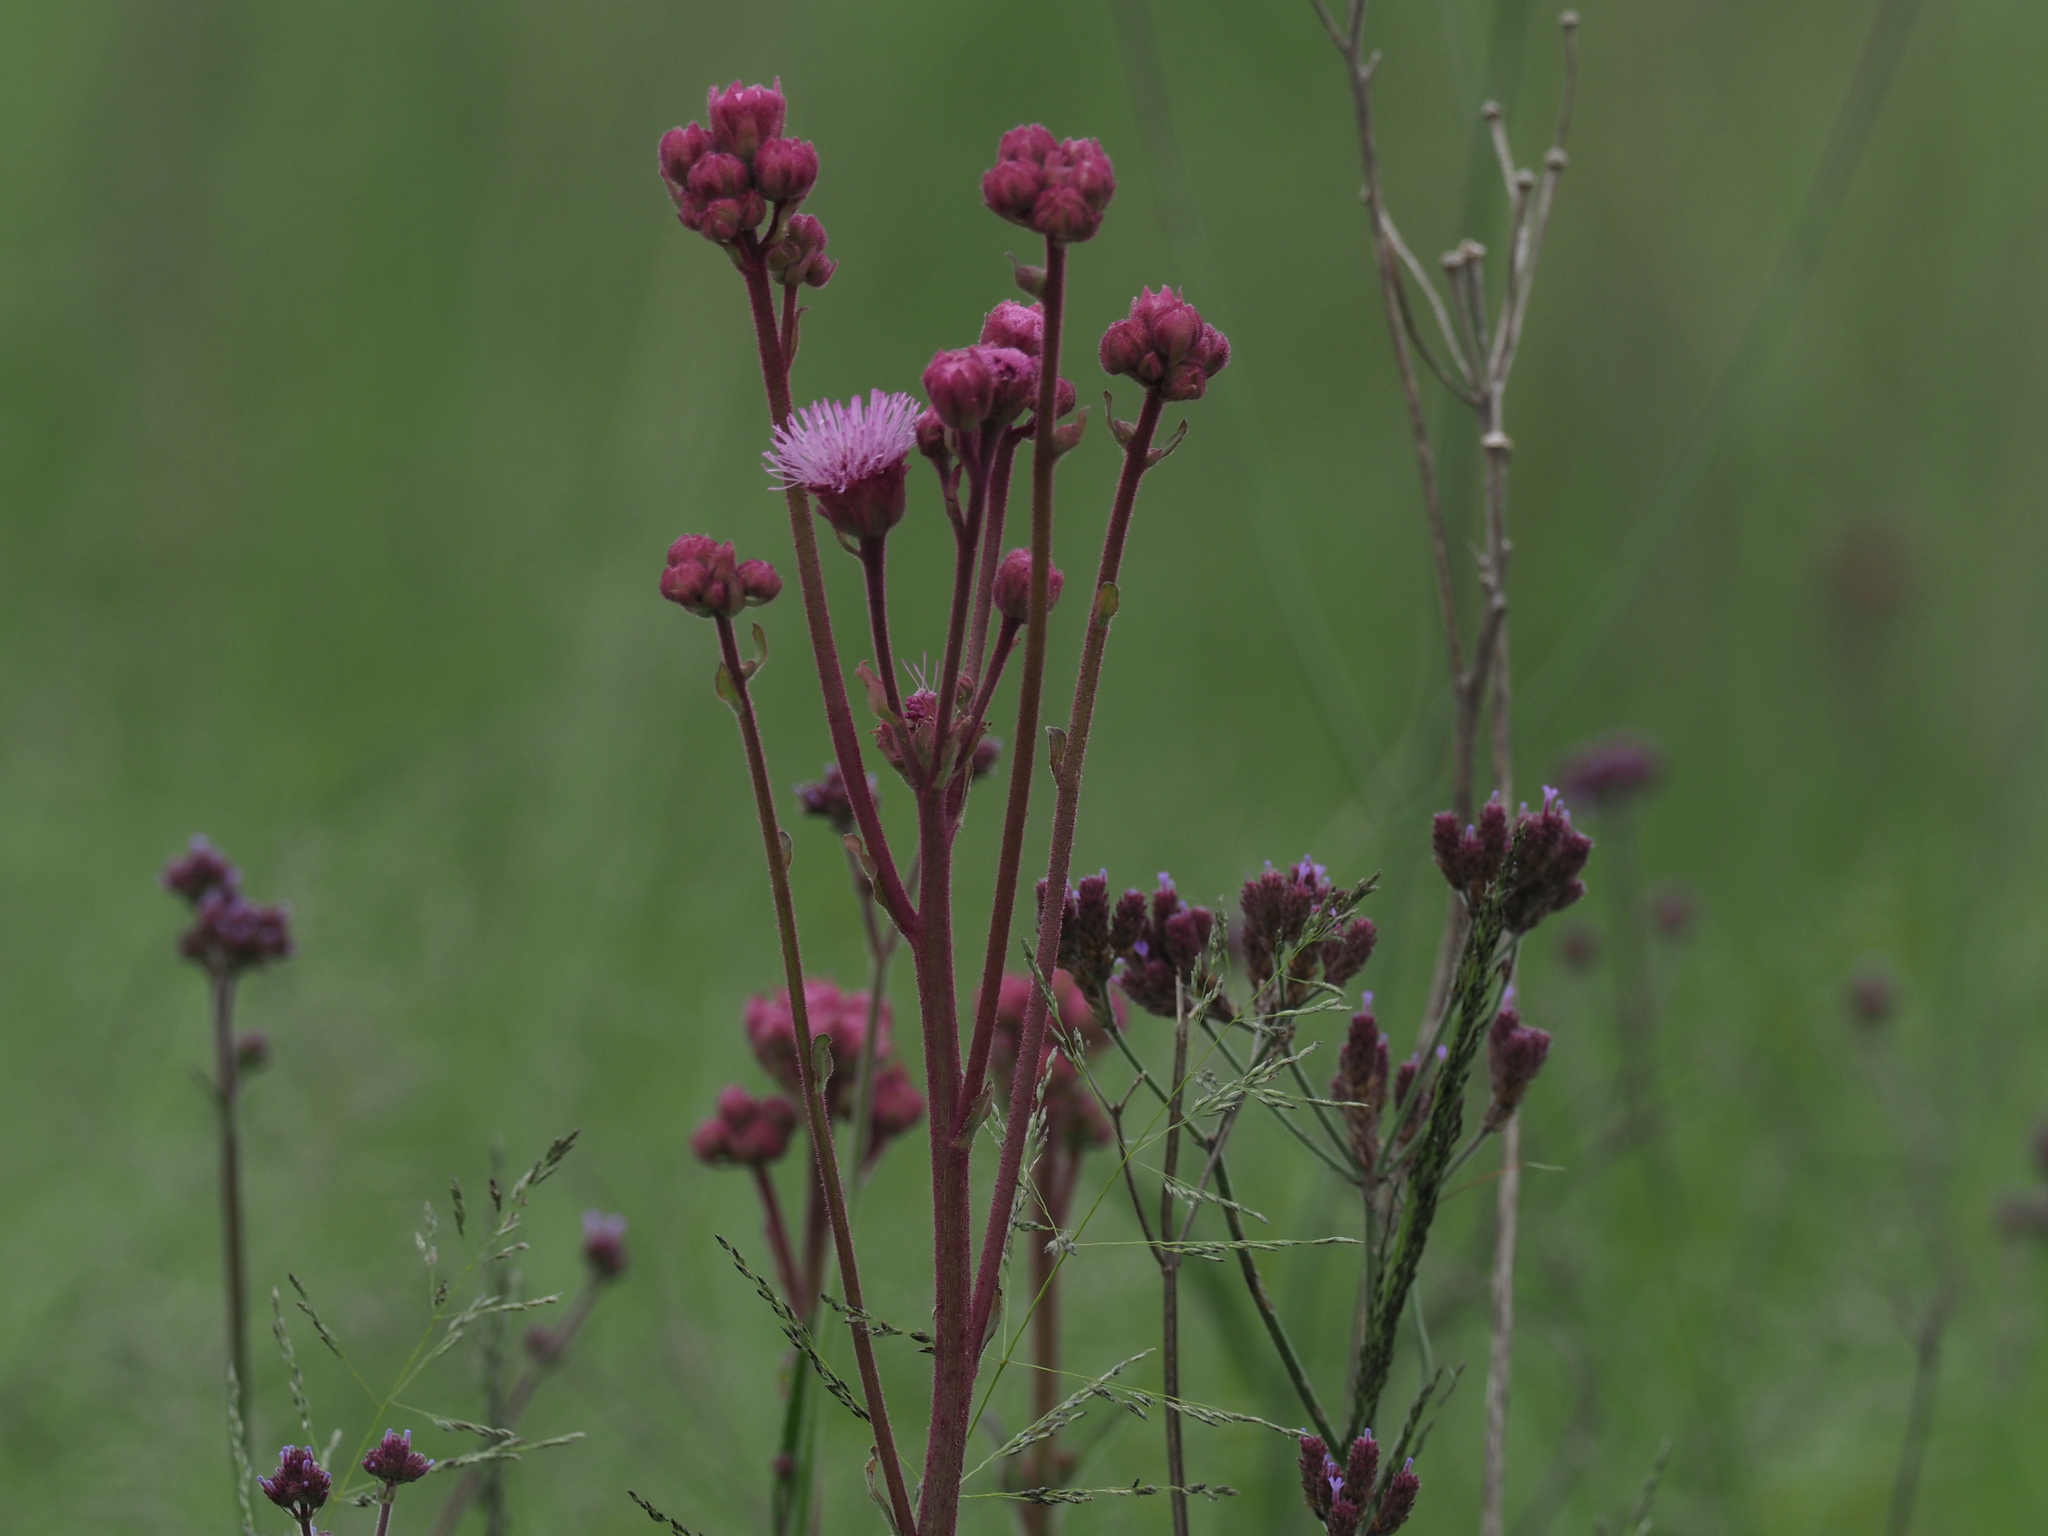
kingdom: Plantae
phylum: Tracheophyta
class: Magnoliopsida
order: Asterales
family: Asteraceae
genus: Campuloclinium
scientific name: Campuloclinium macrocephalum
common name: Pompomweed
